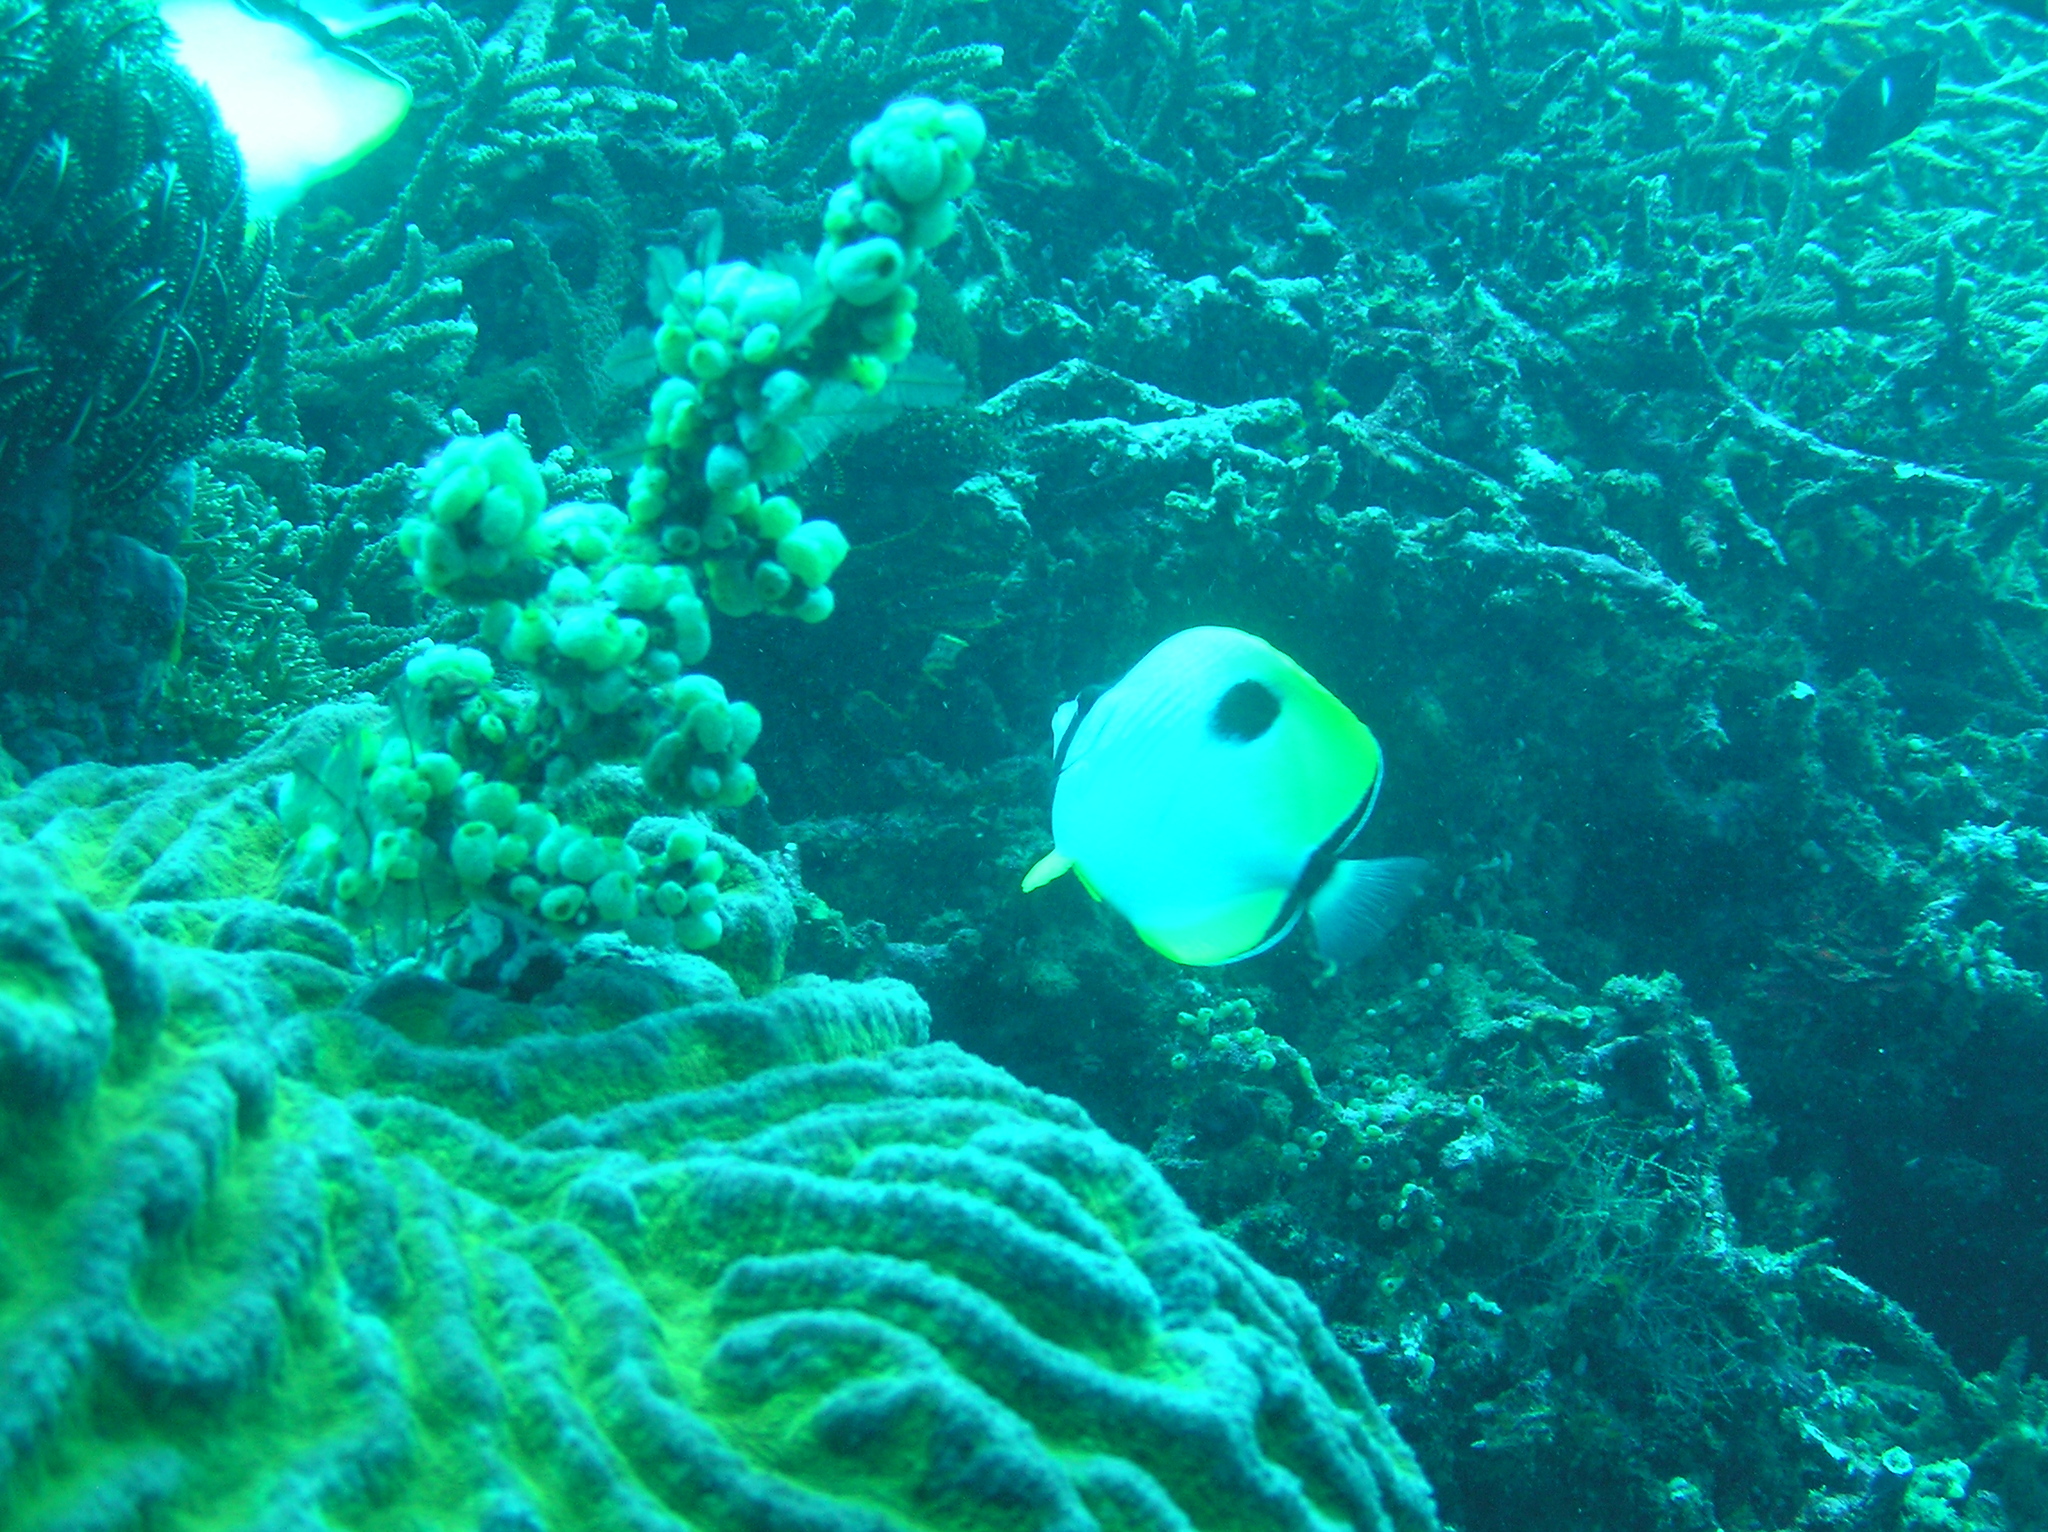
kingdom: Animalia
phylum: Chordata
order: Perciformes
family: Chaetodontidae
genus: Chaetodon
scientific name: Chaetodon unimaculatus
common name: Teardrop butterflyfish
